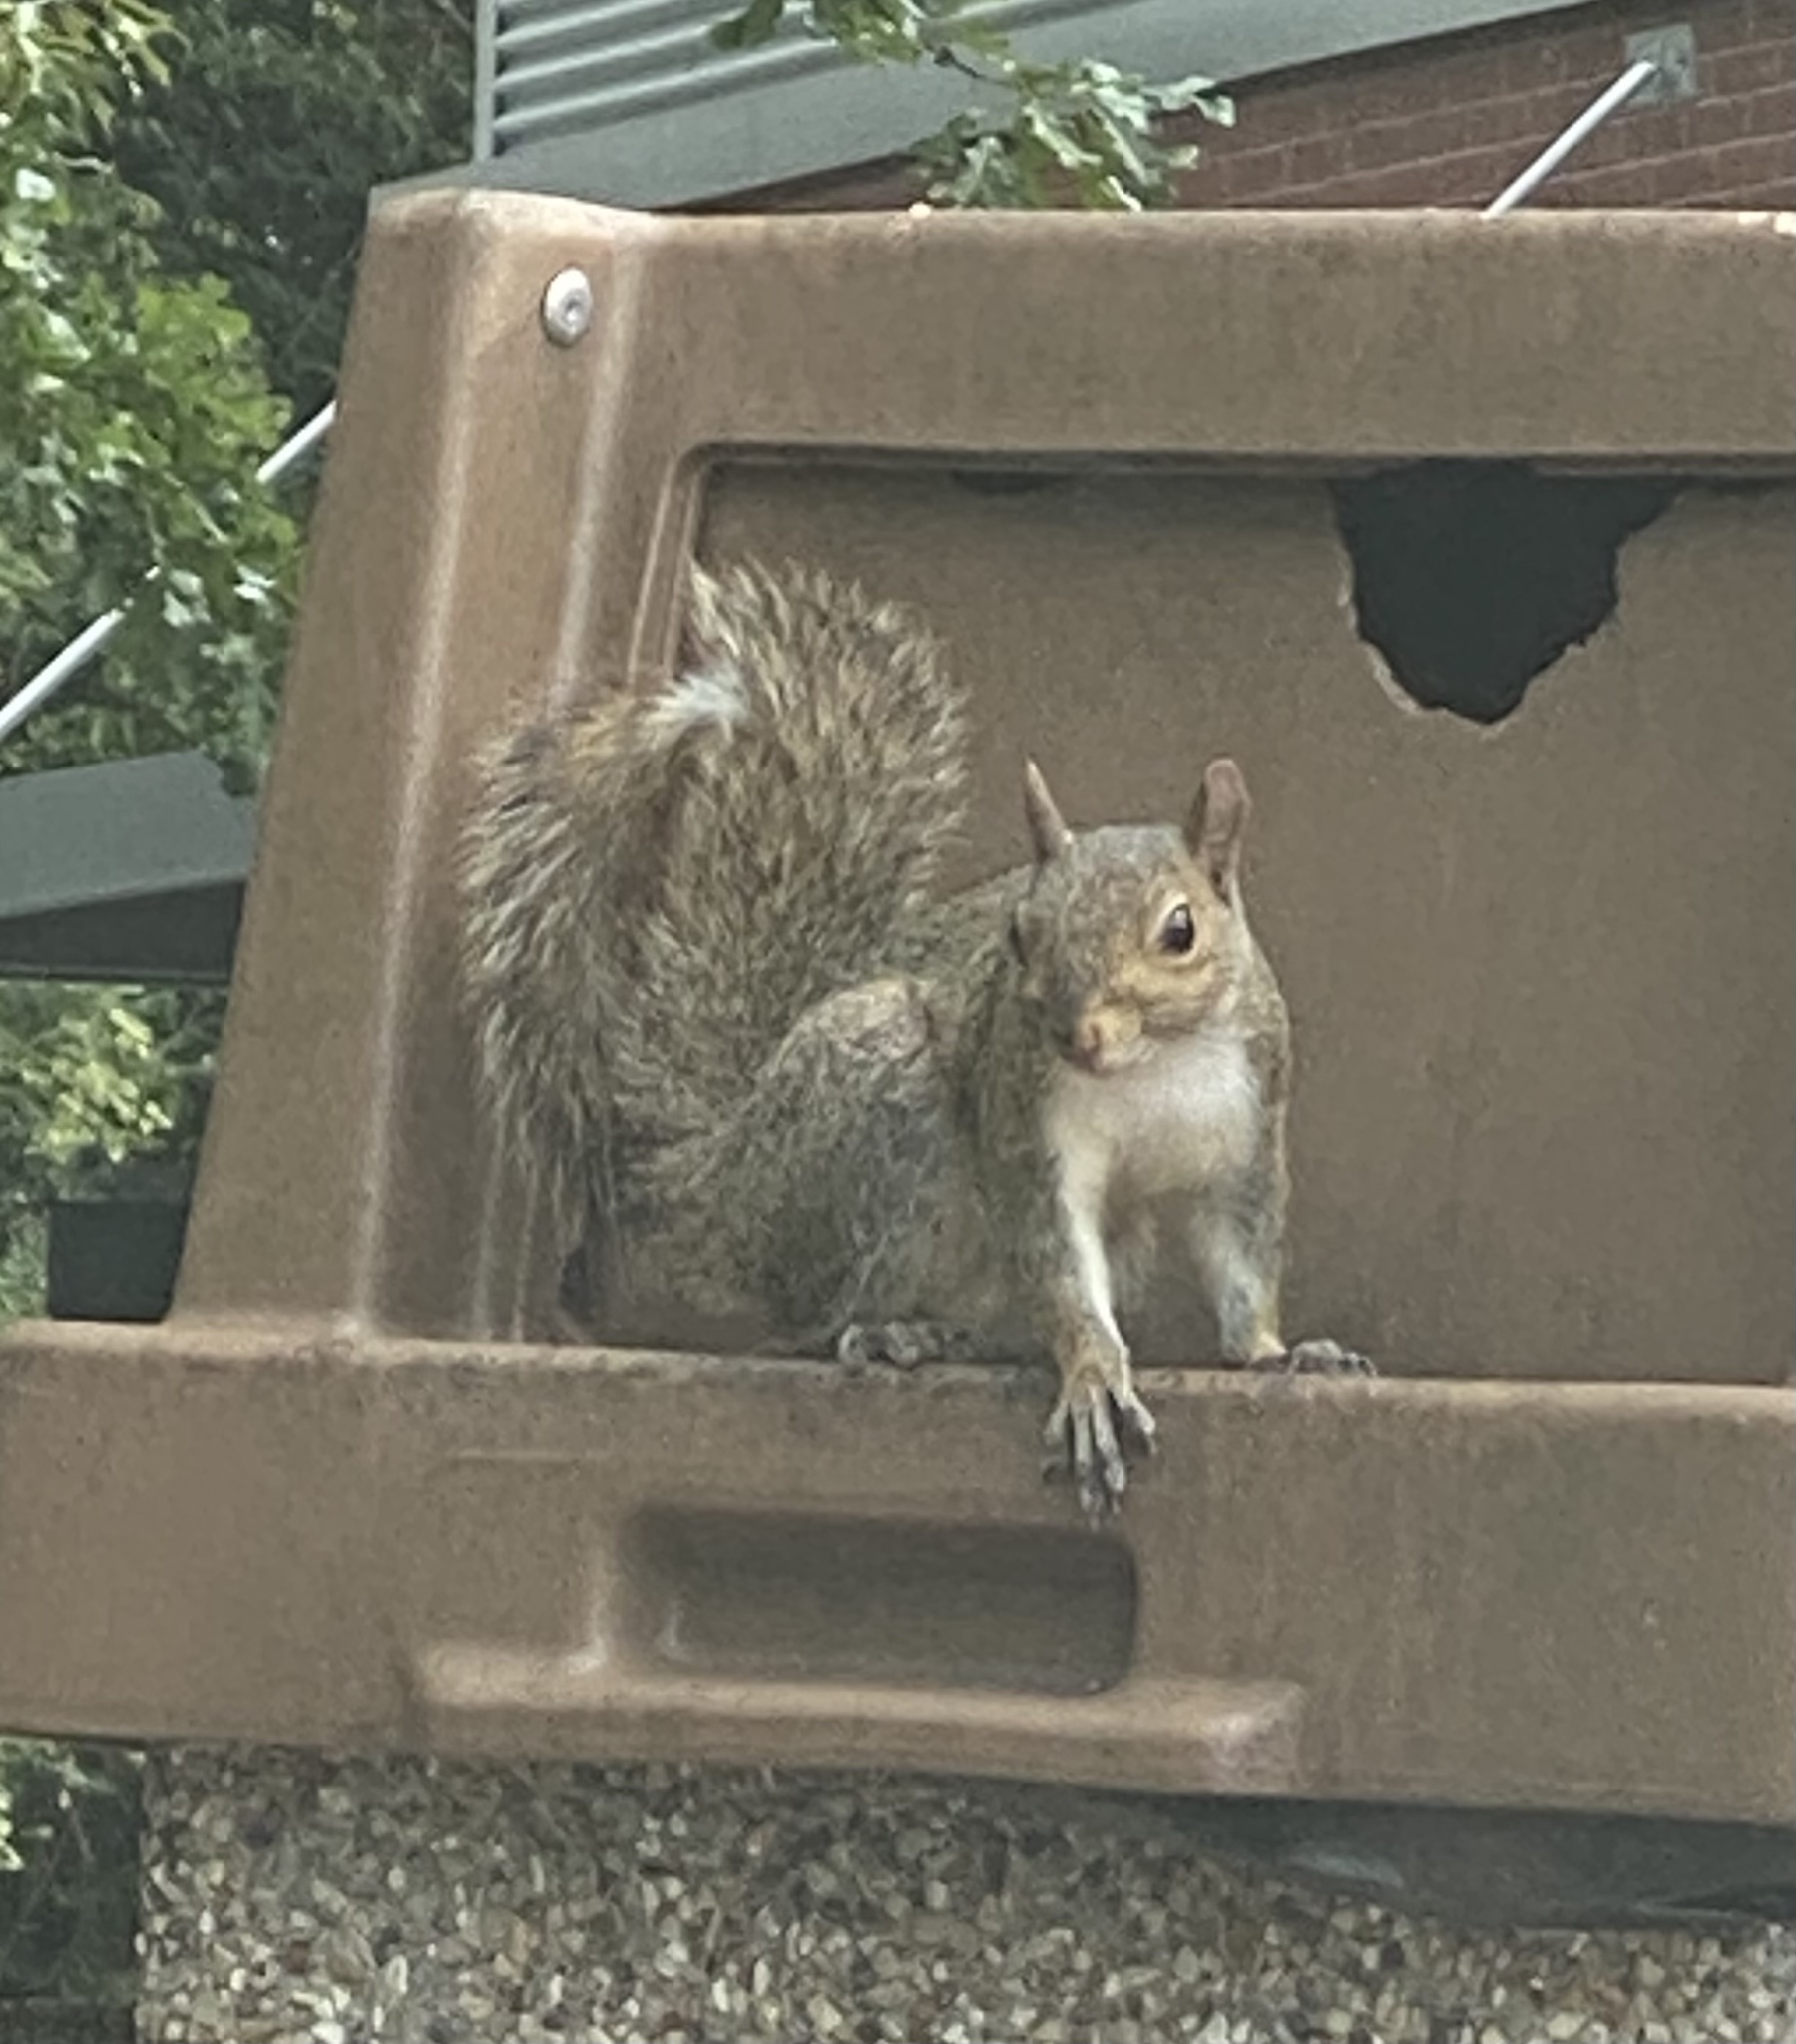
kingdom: Animalia
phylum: Chordata
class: Mammalia
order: Rodentia
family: Sciuridae
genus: Sciurus
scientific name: Sciurus carolinensis
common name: Eastern gray squirrel
